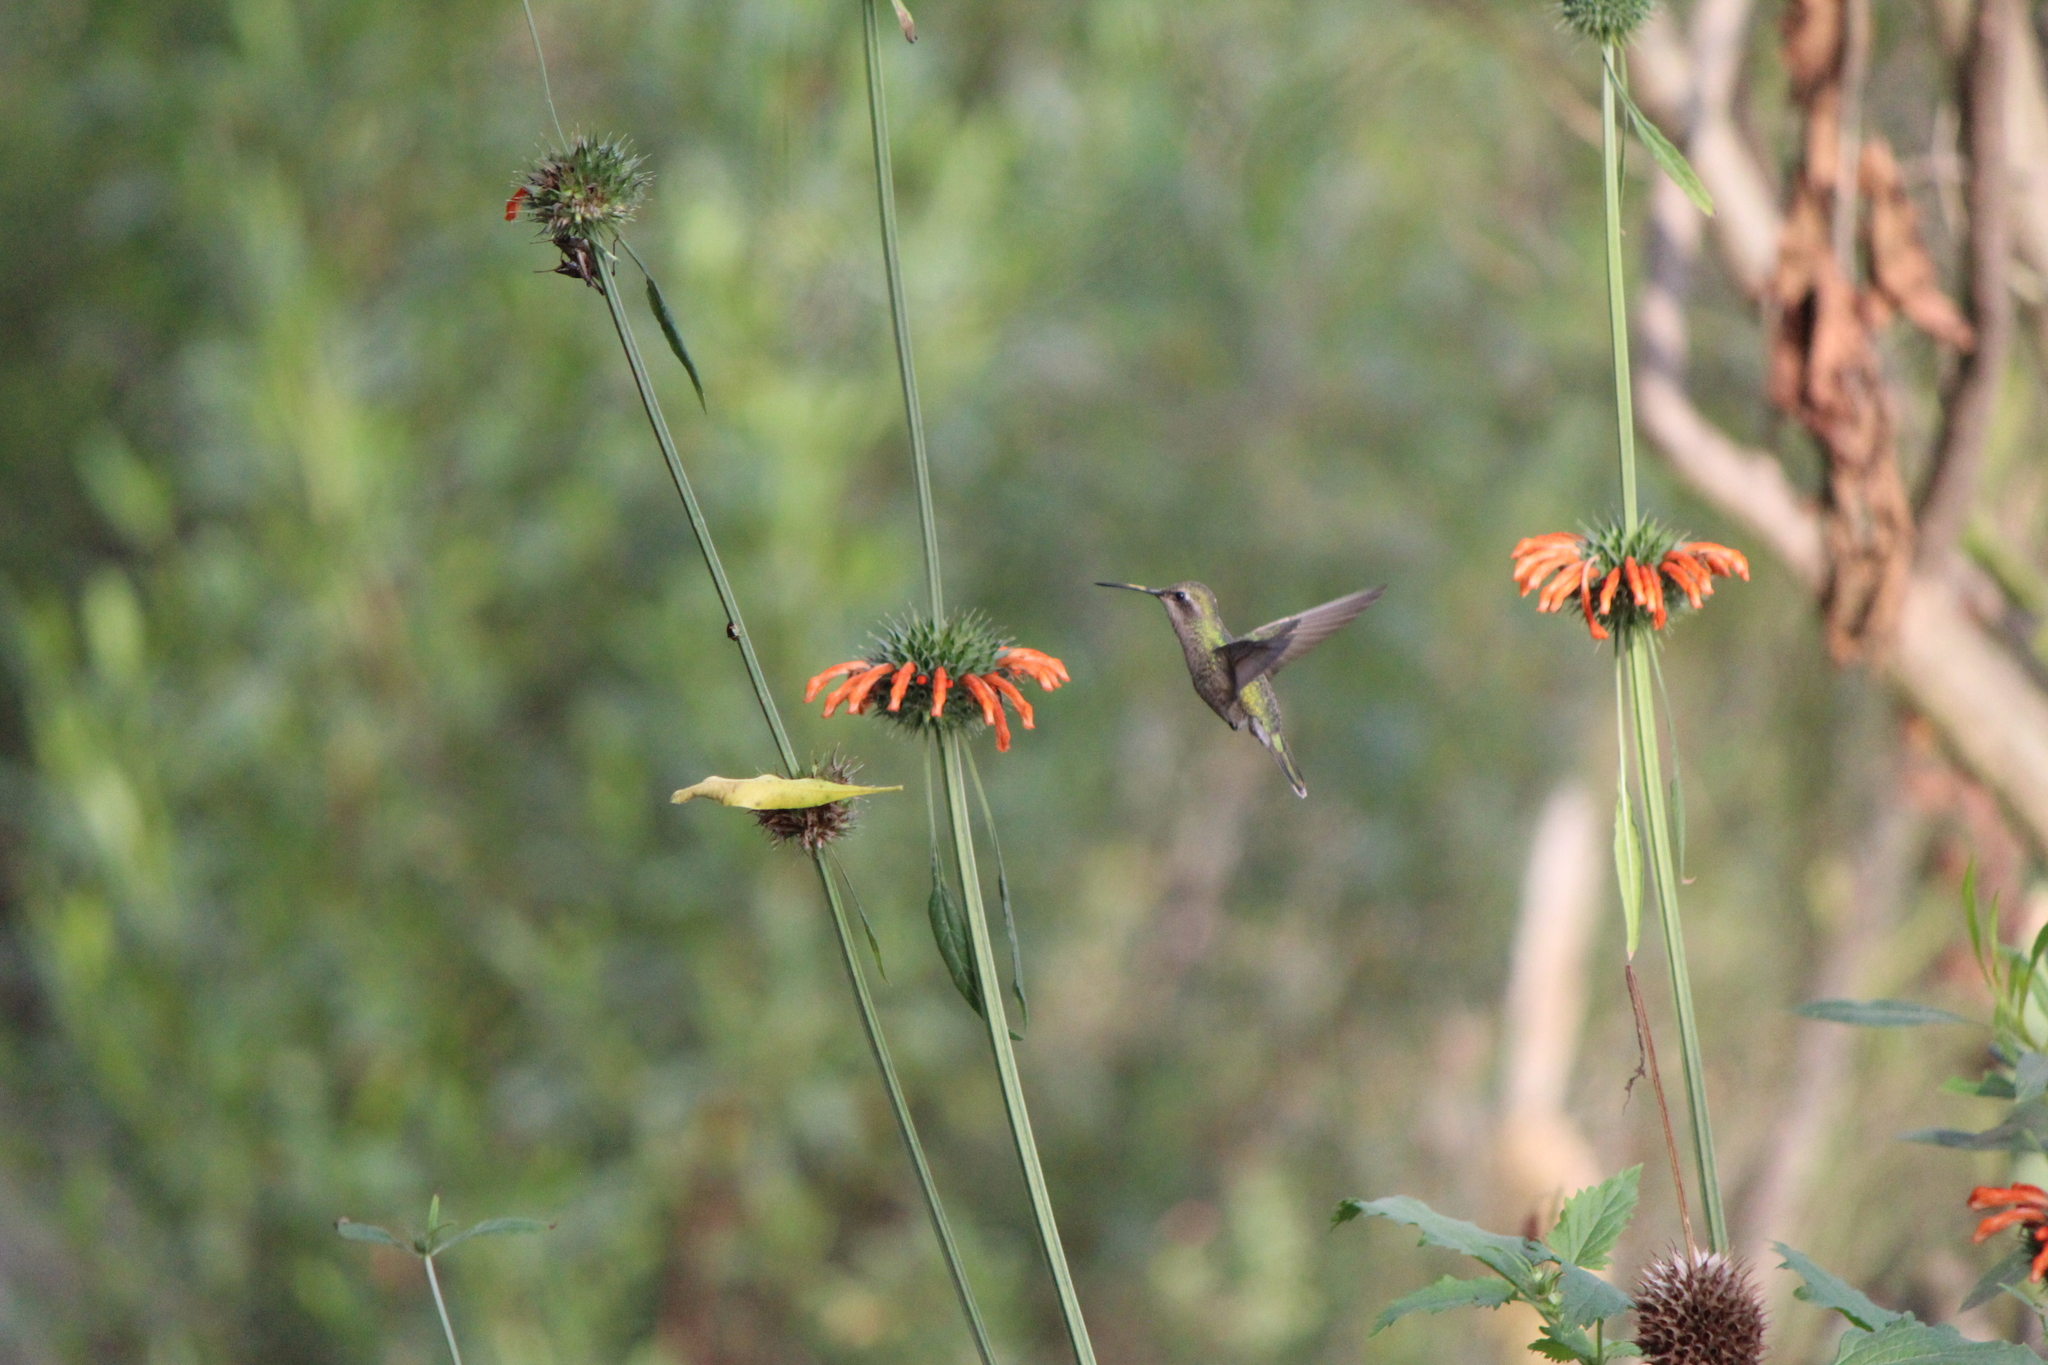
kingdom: Animalia
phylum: Chordata
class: Aves
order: Apodiformes
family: Trochilidae
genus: Cynanthus
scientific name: Cynanthus latirostris
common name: Broad-billed hummingbird
